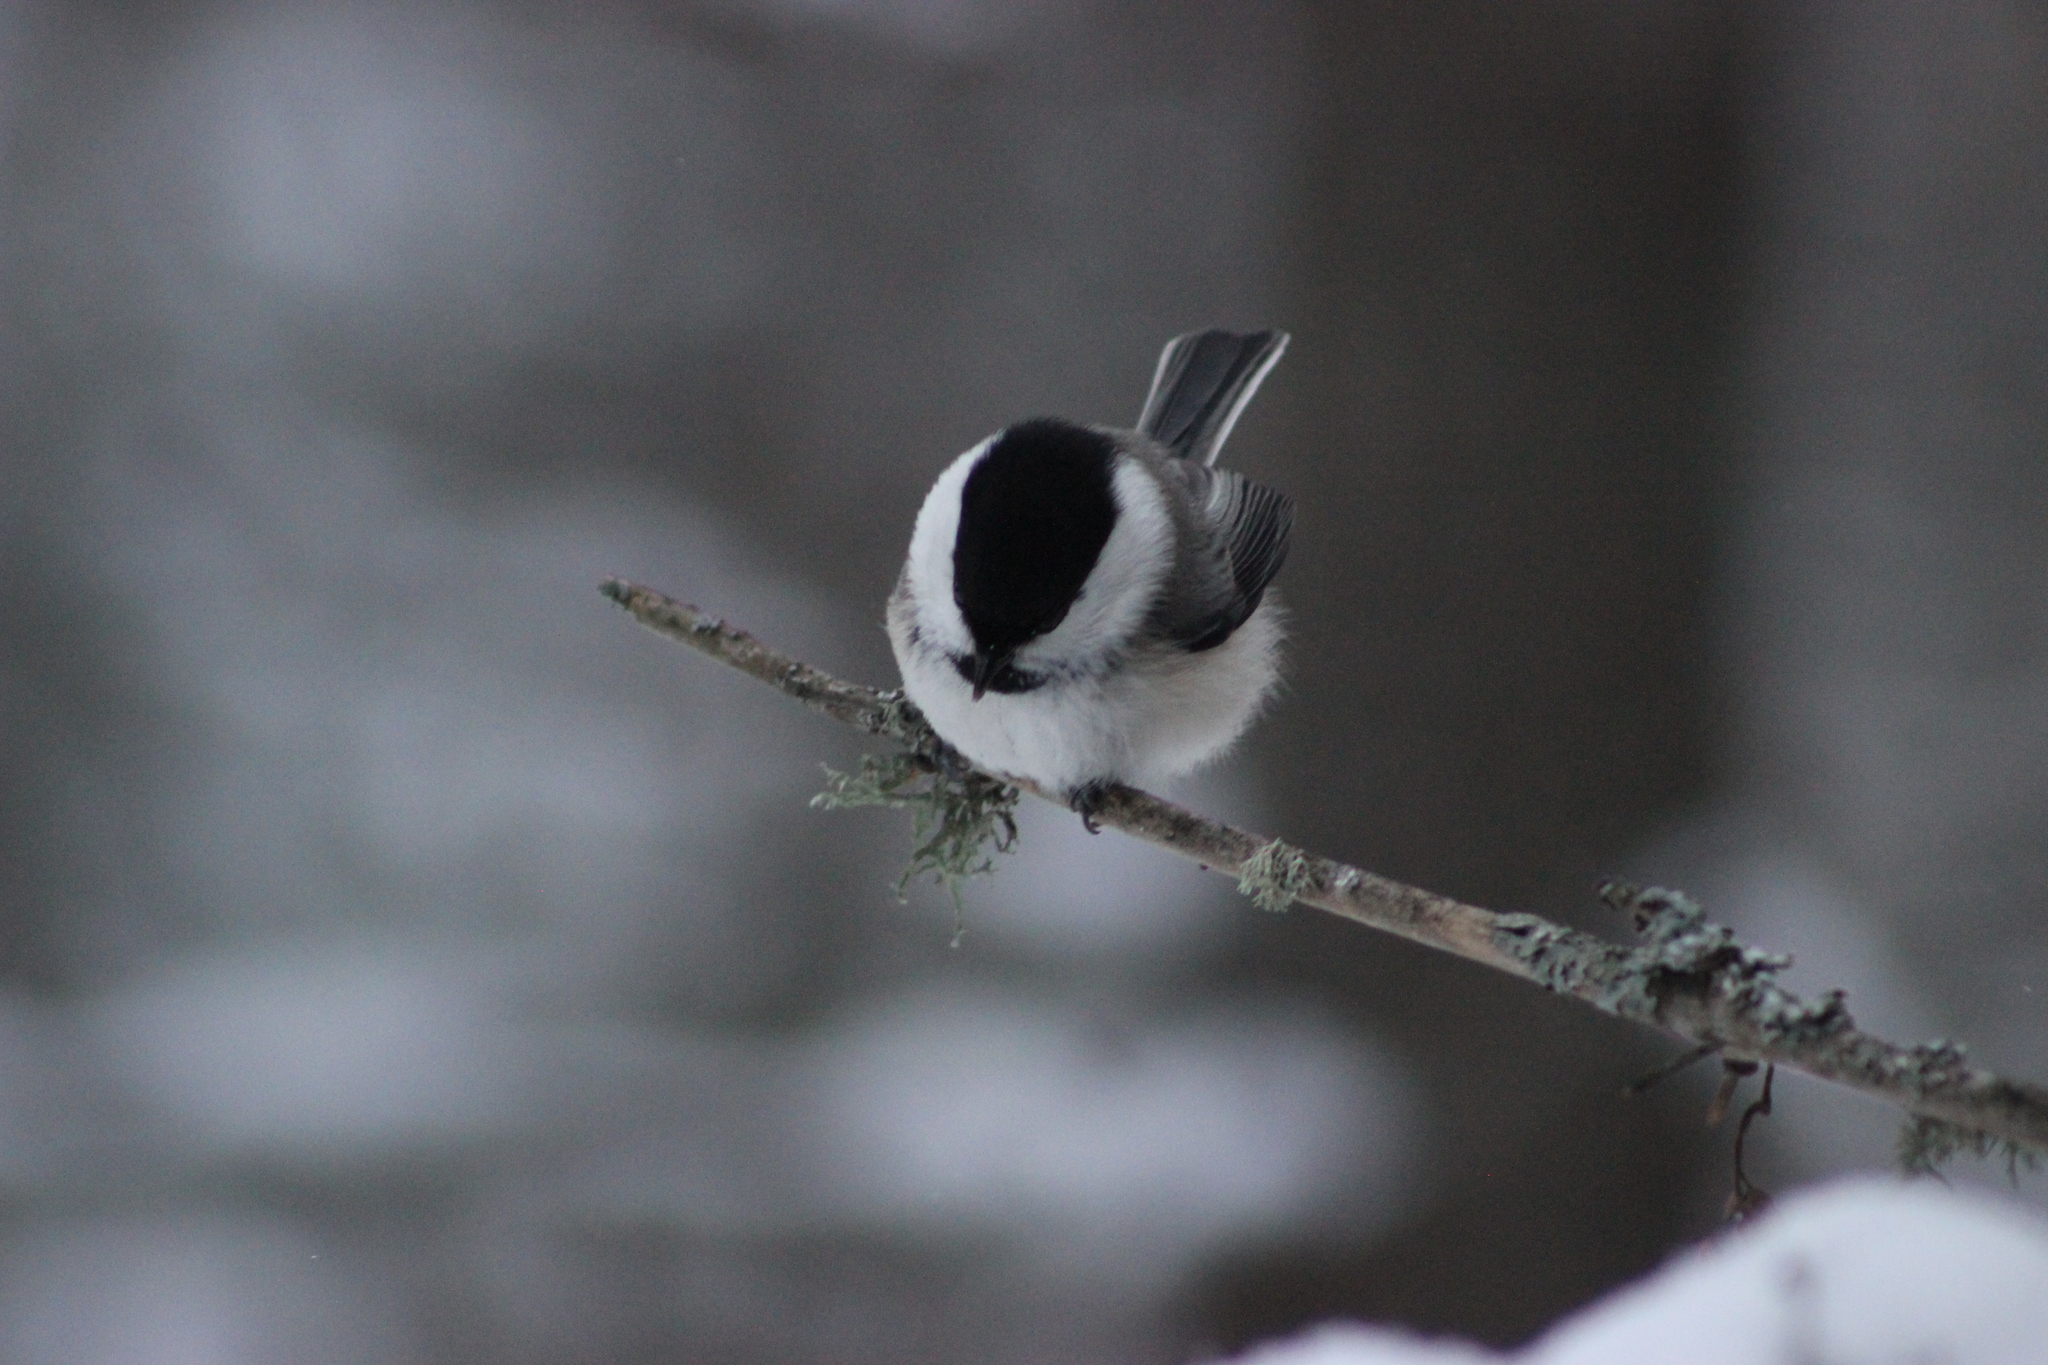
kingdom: Animalia
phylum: Chordata
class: Aves
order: Passeriformes
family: Paridae
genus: Poecile
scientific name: Poecile montanus
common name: Willow tit
